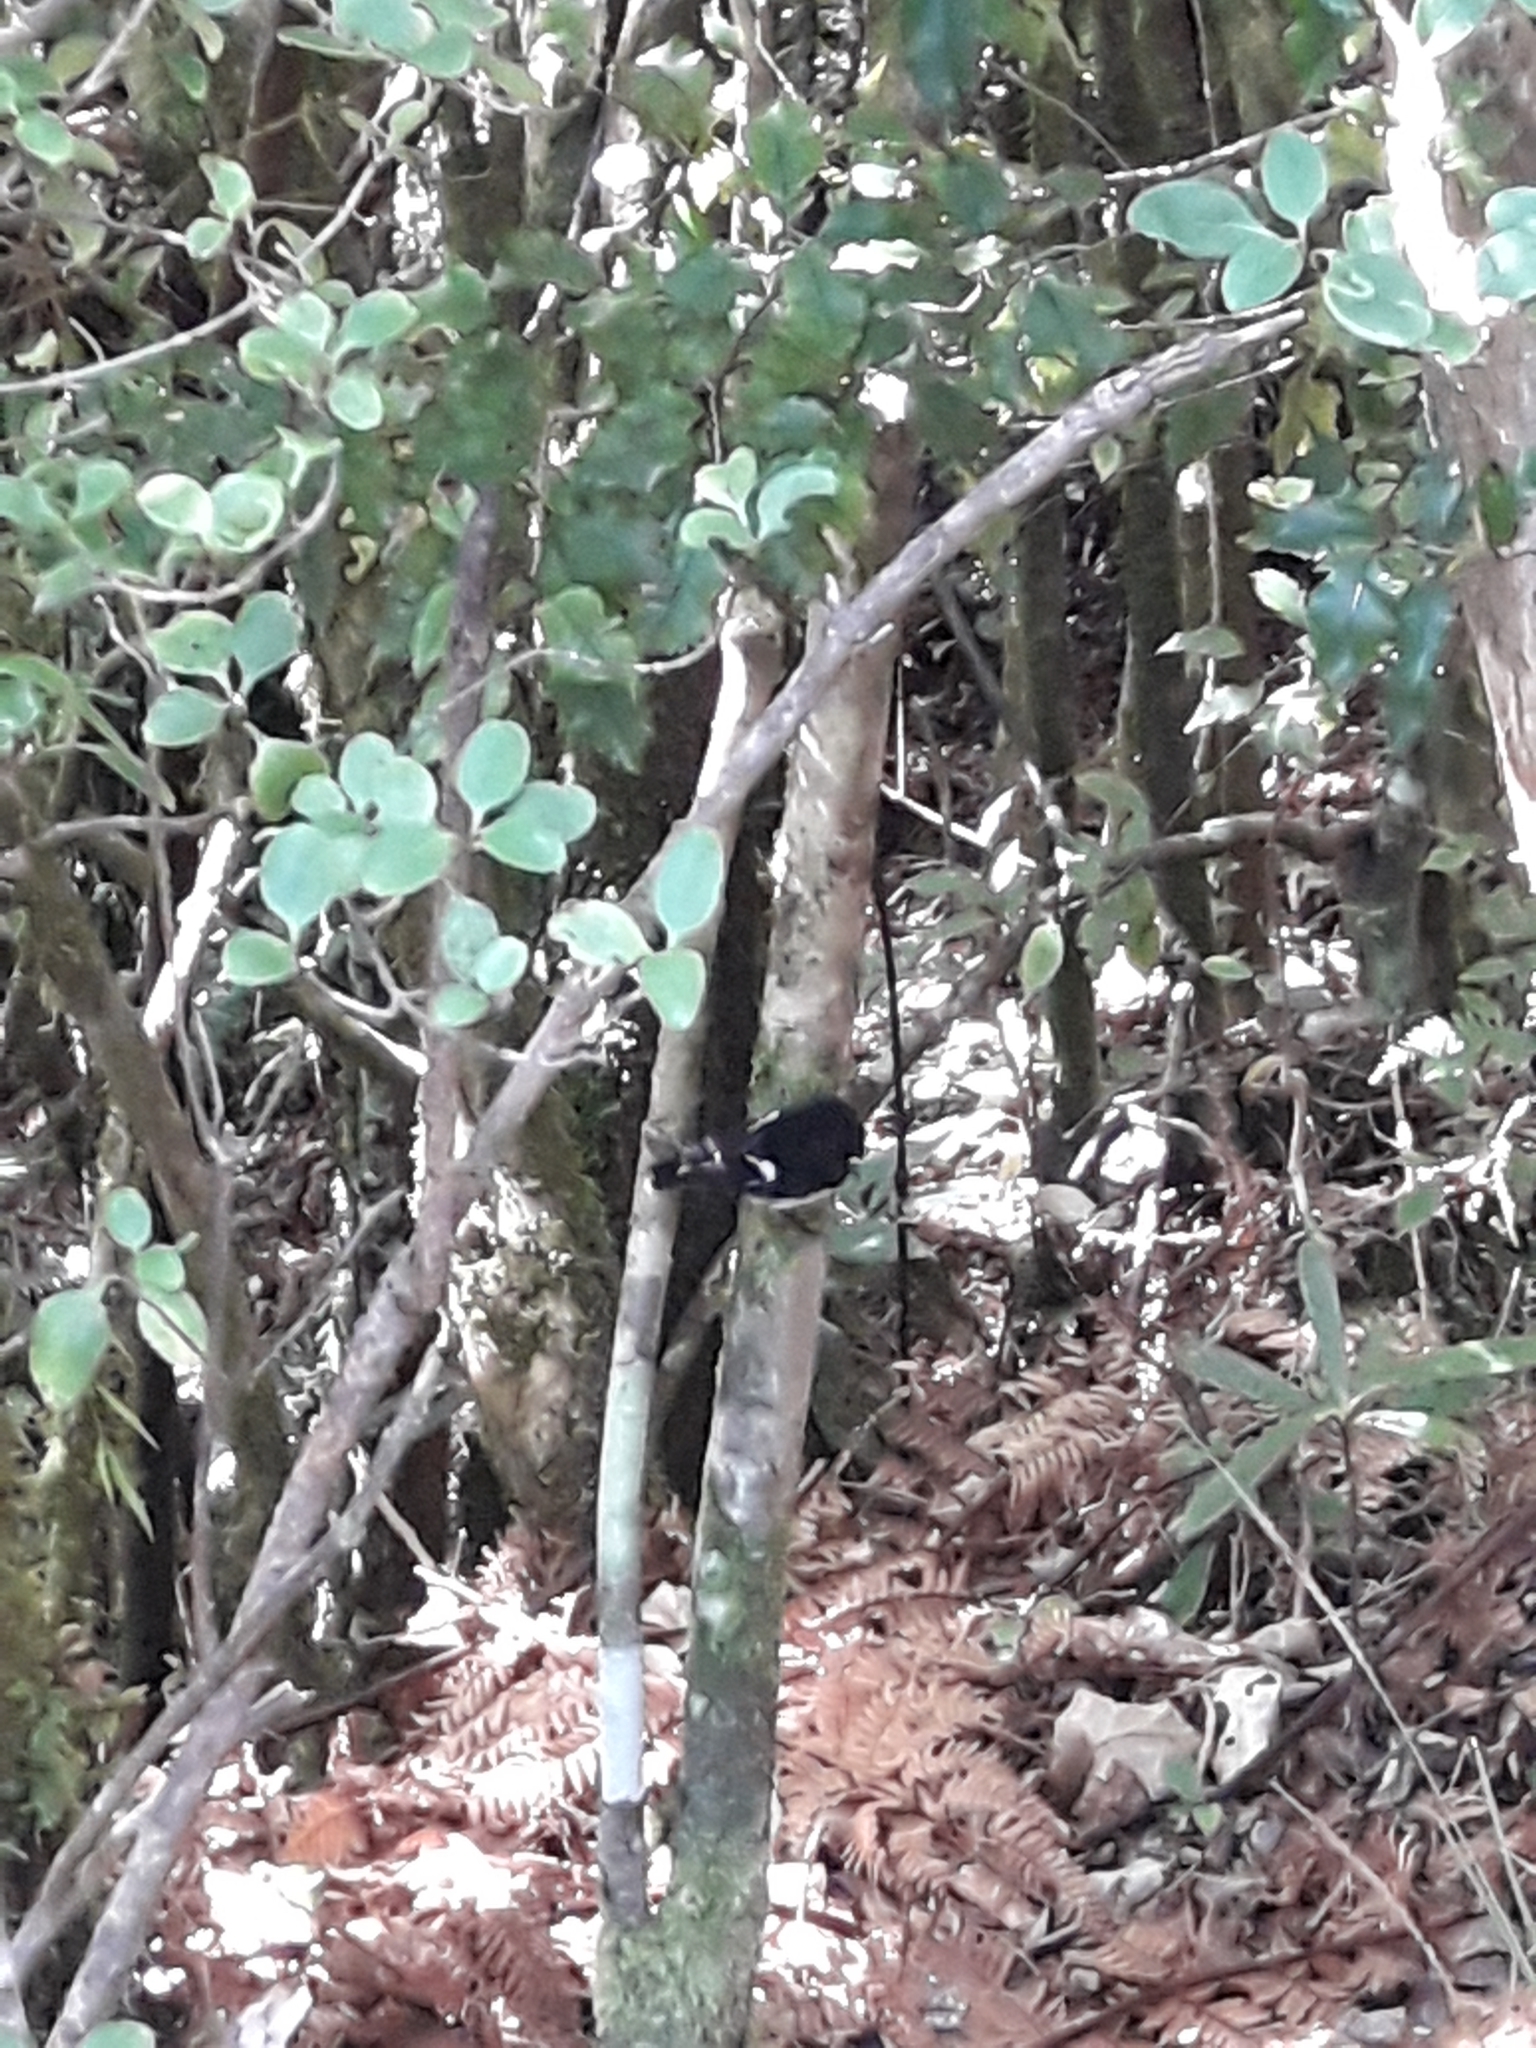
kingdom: Animalia
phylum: Chordata
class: Aves
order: Passeriformes
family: Petroicidae
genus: Petroica
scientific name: Petroica macrocephala
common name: Tomtit
